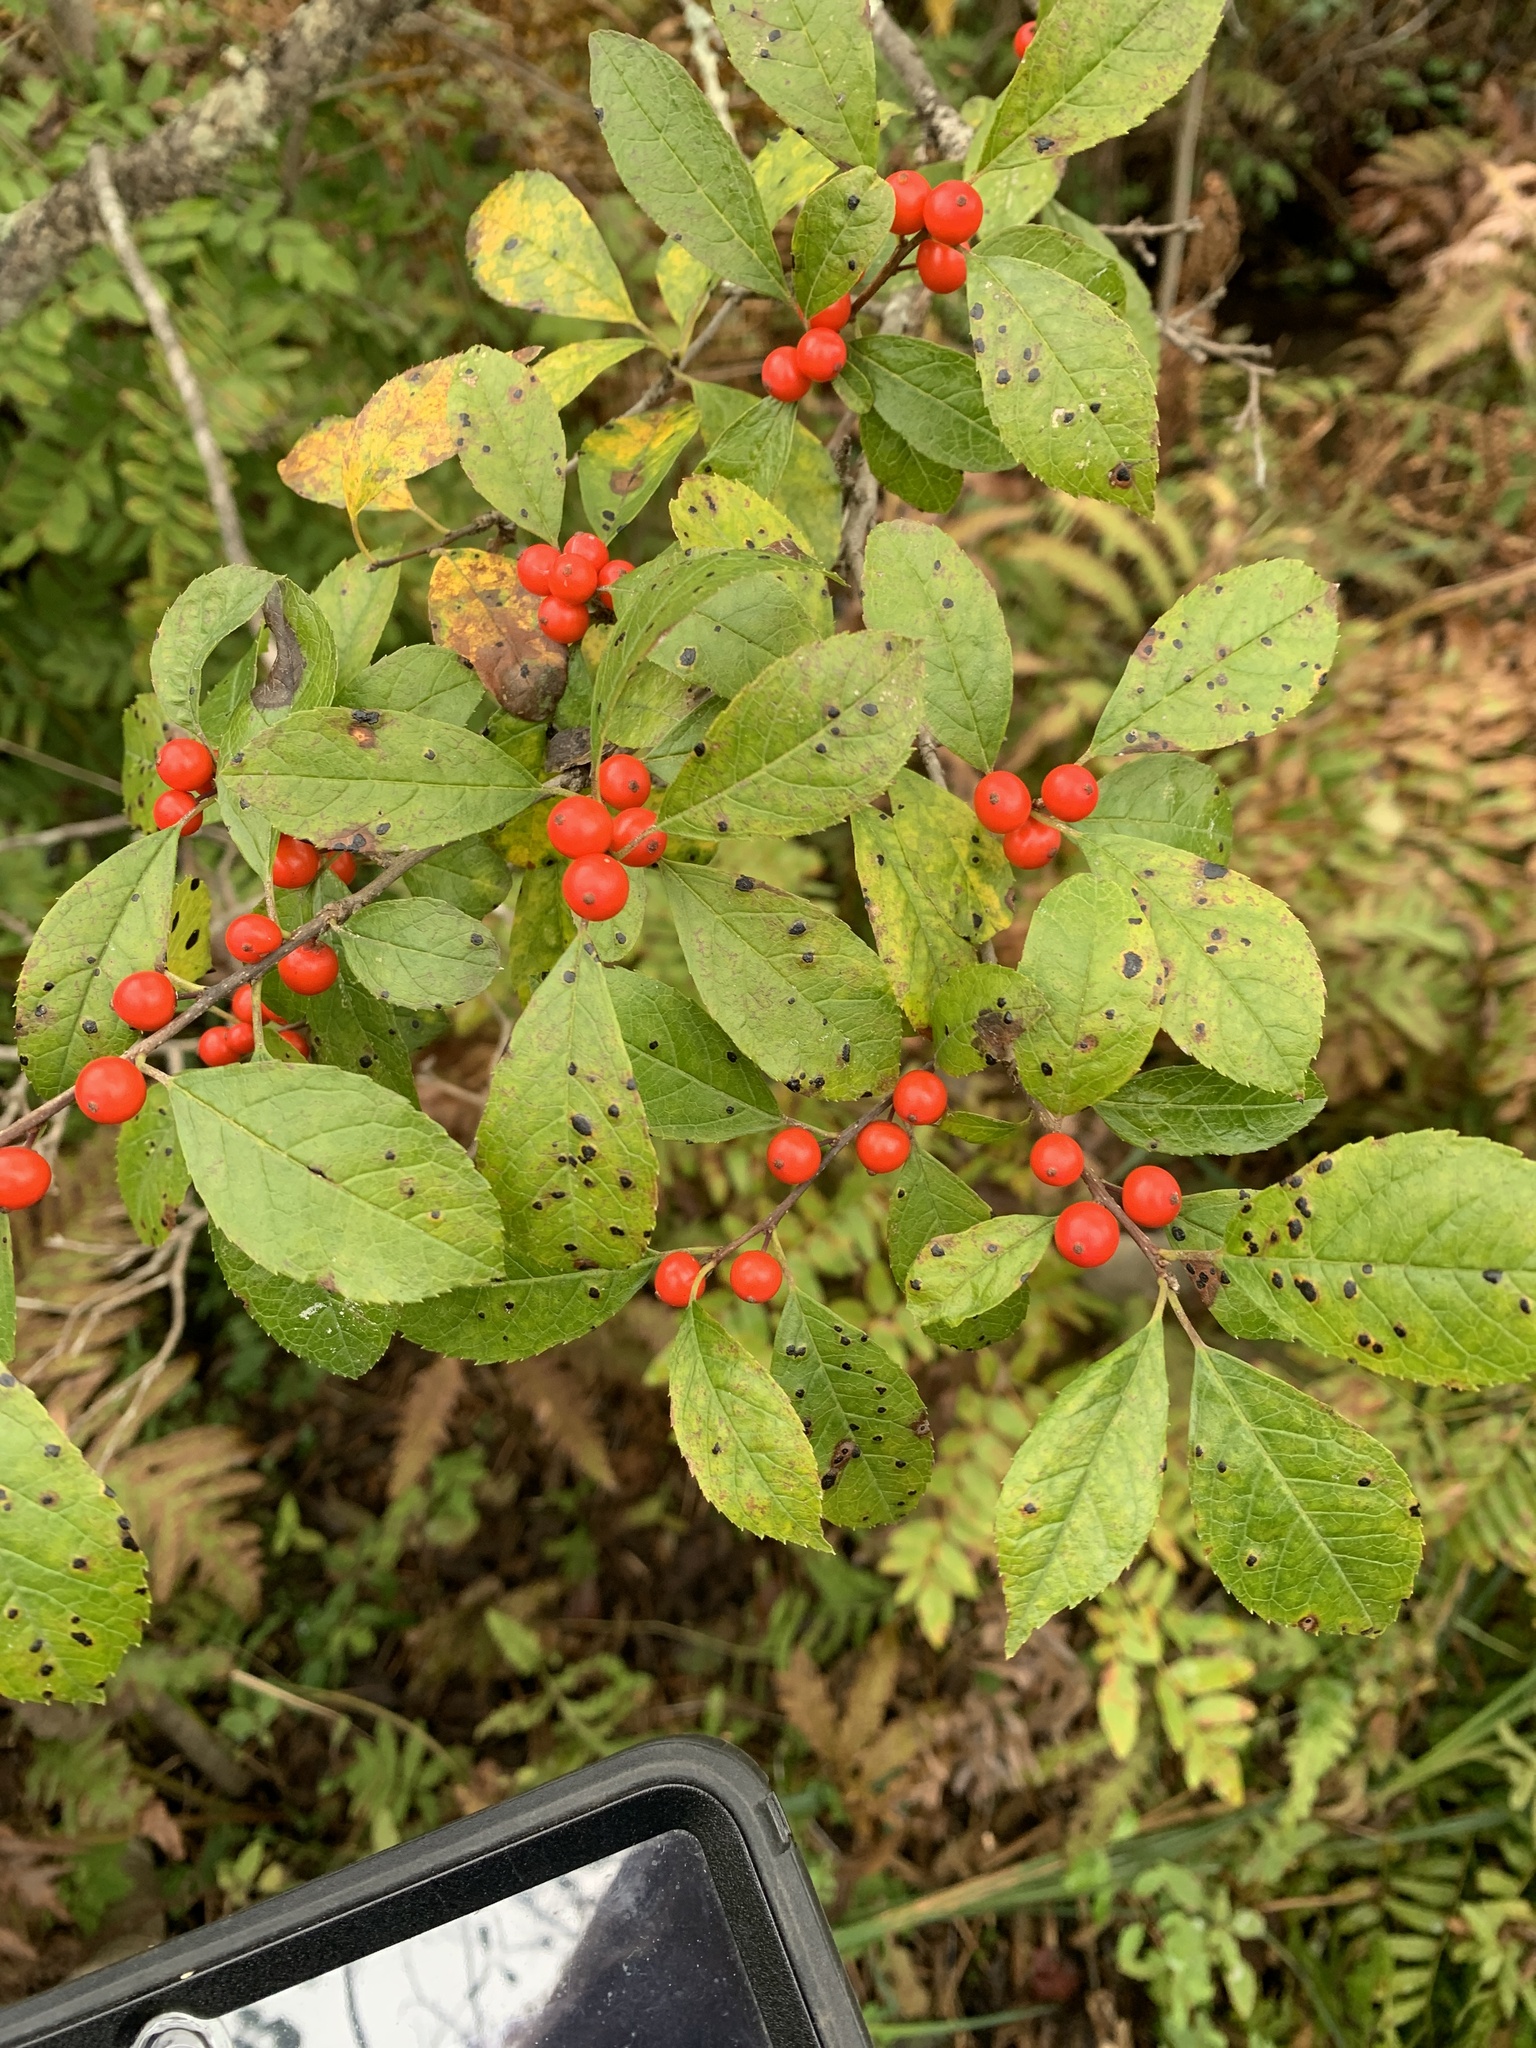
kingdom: Plantae
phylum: Tracheophyta
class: Magnoliopsida
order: Aquifoliales
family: Aquifoliaceae
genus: Ilex
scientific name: Ilex verticillata
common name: Virginia winterberry
